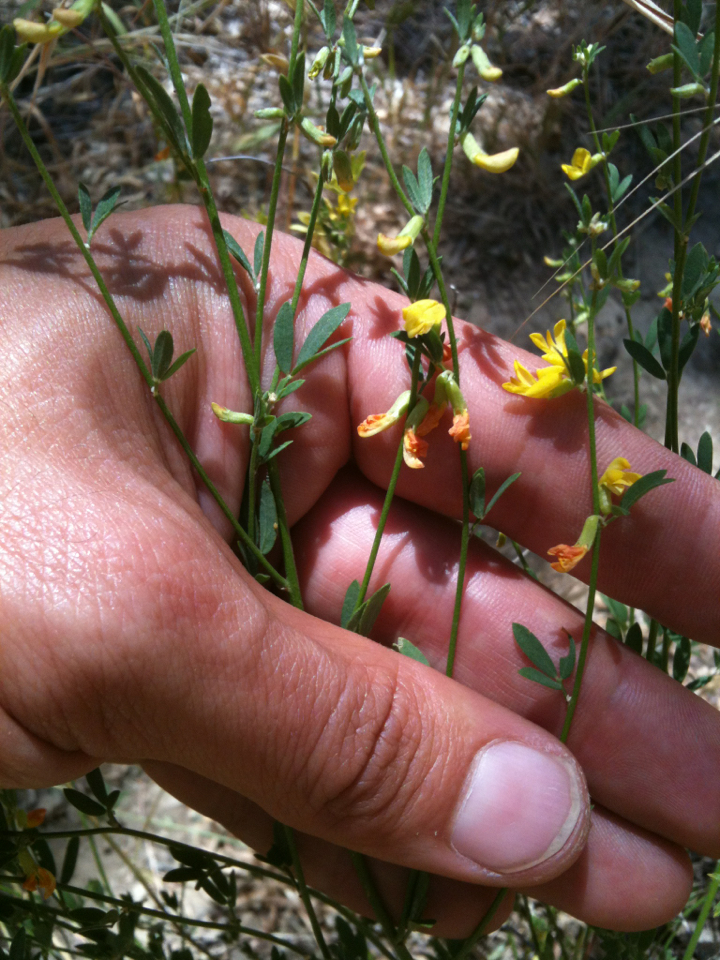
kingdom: Plantae
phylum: Tracheophyta
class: Magnoliopsida
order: Fabales
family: Fabaceae
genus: Acmispon
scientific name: Acmispon glaber
